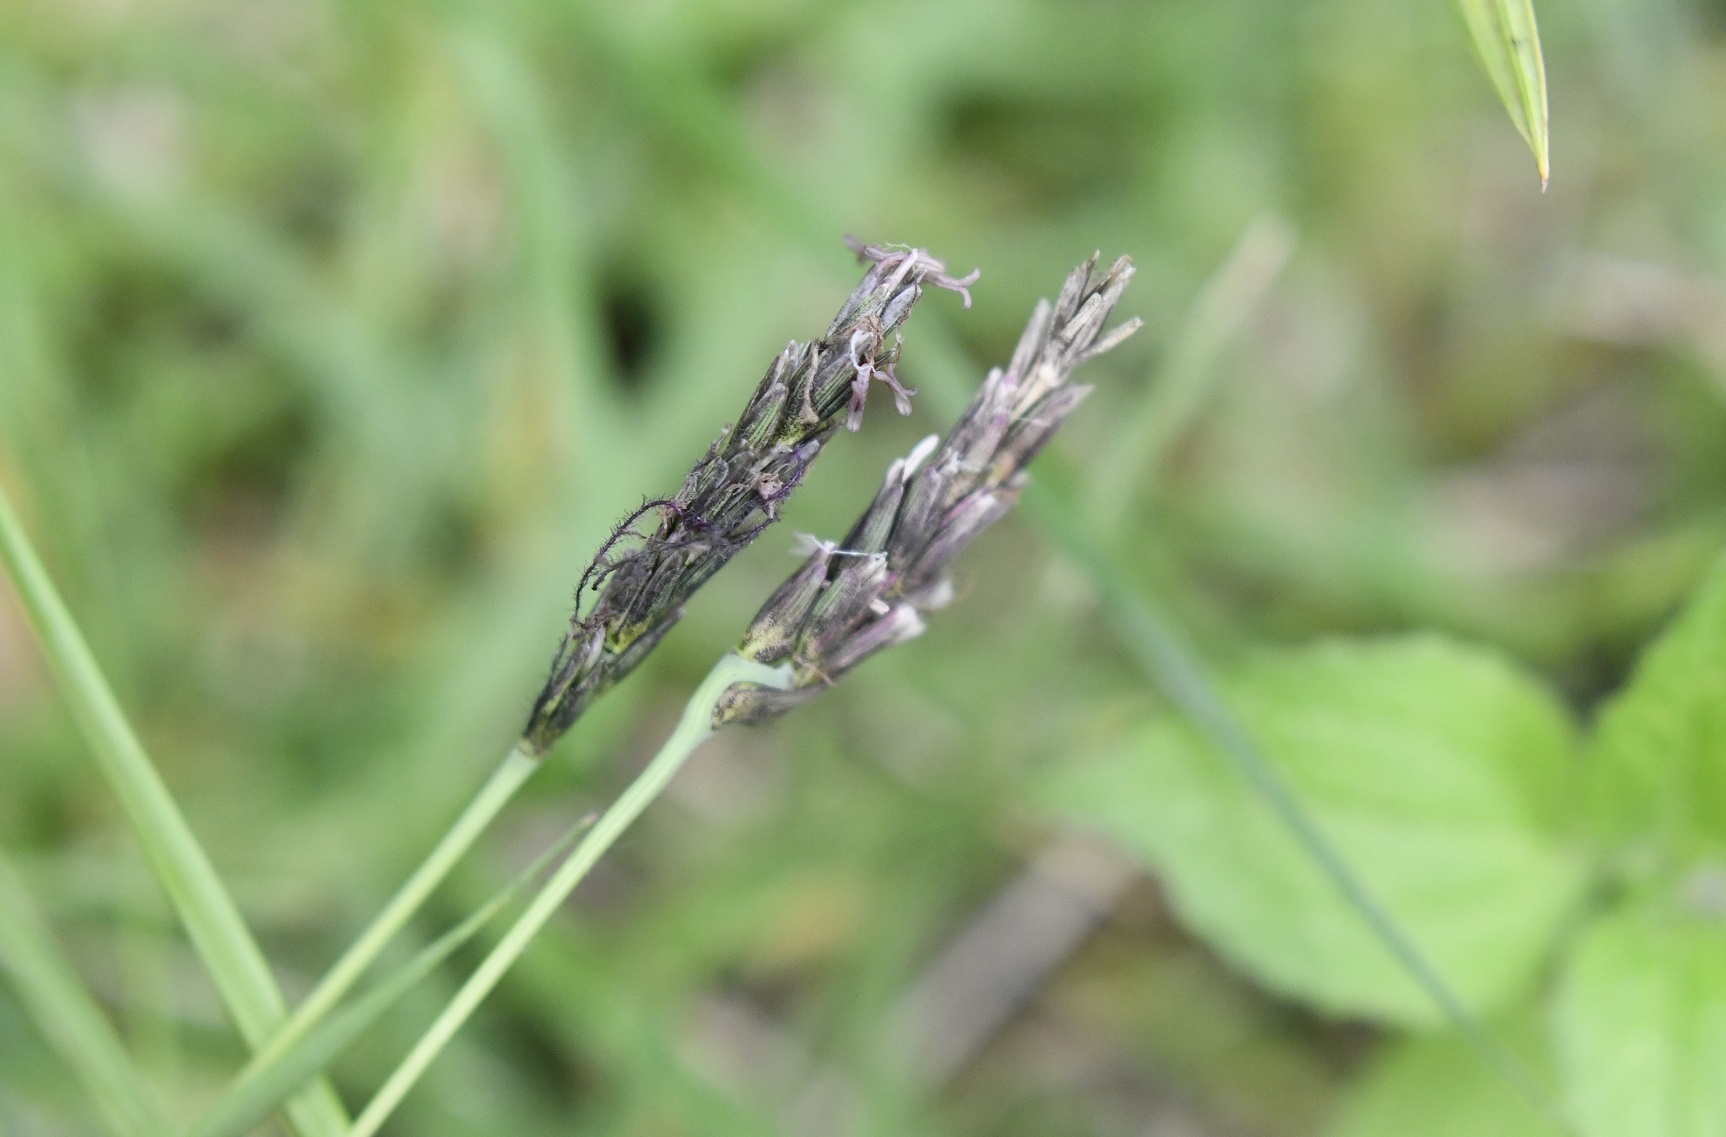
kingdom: Plantae
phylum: Tracheophyta
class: Liliopsida
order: Poales
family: Poaceae
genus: Hilaria
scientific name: Hilaria cenchroides
